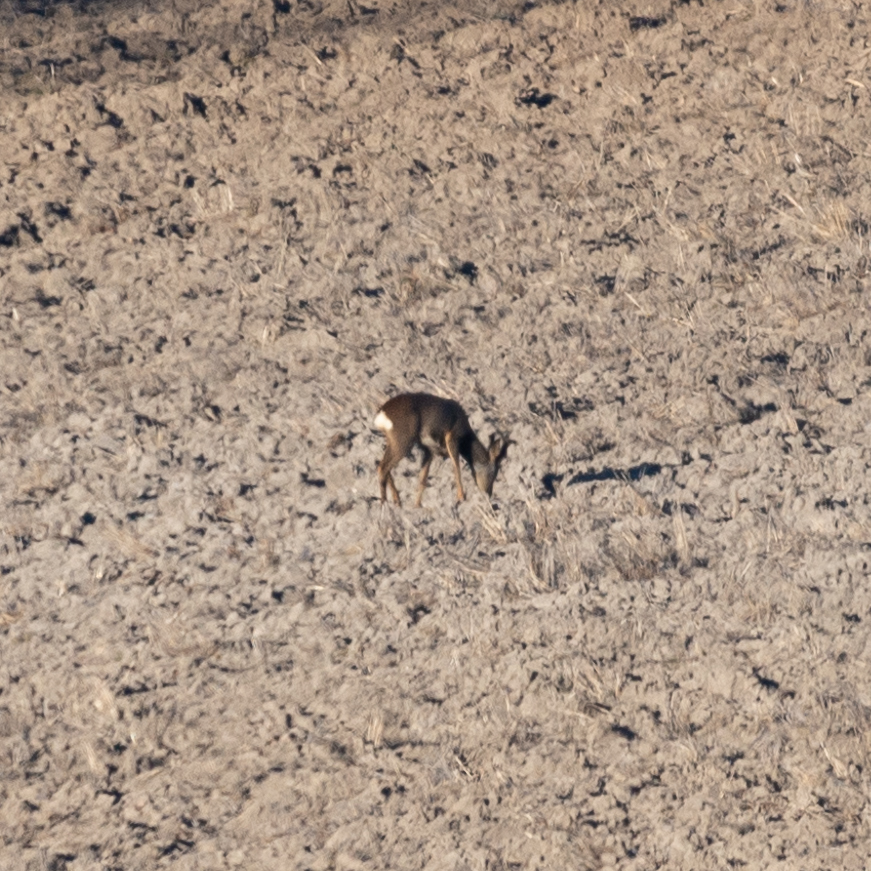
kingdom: Animalia
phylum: Chordata
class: Mammalia
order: Artiodactyla
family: Cervidae
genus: Capreolus
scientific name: Capreolus capreolus
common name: Western roe deer
